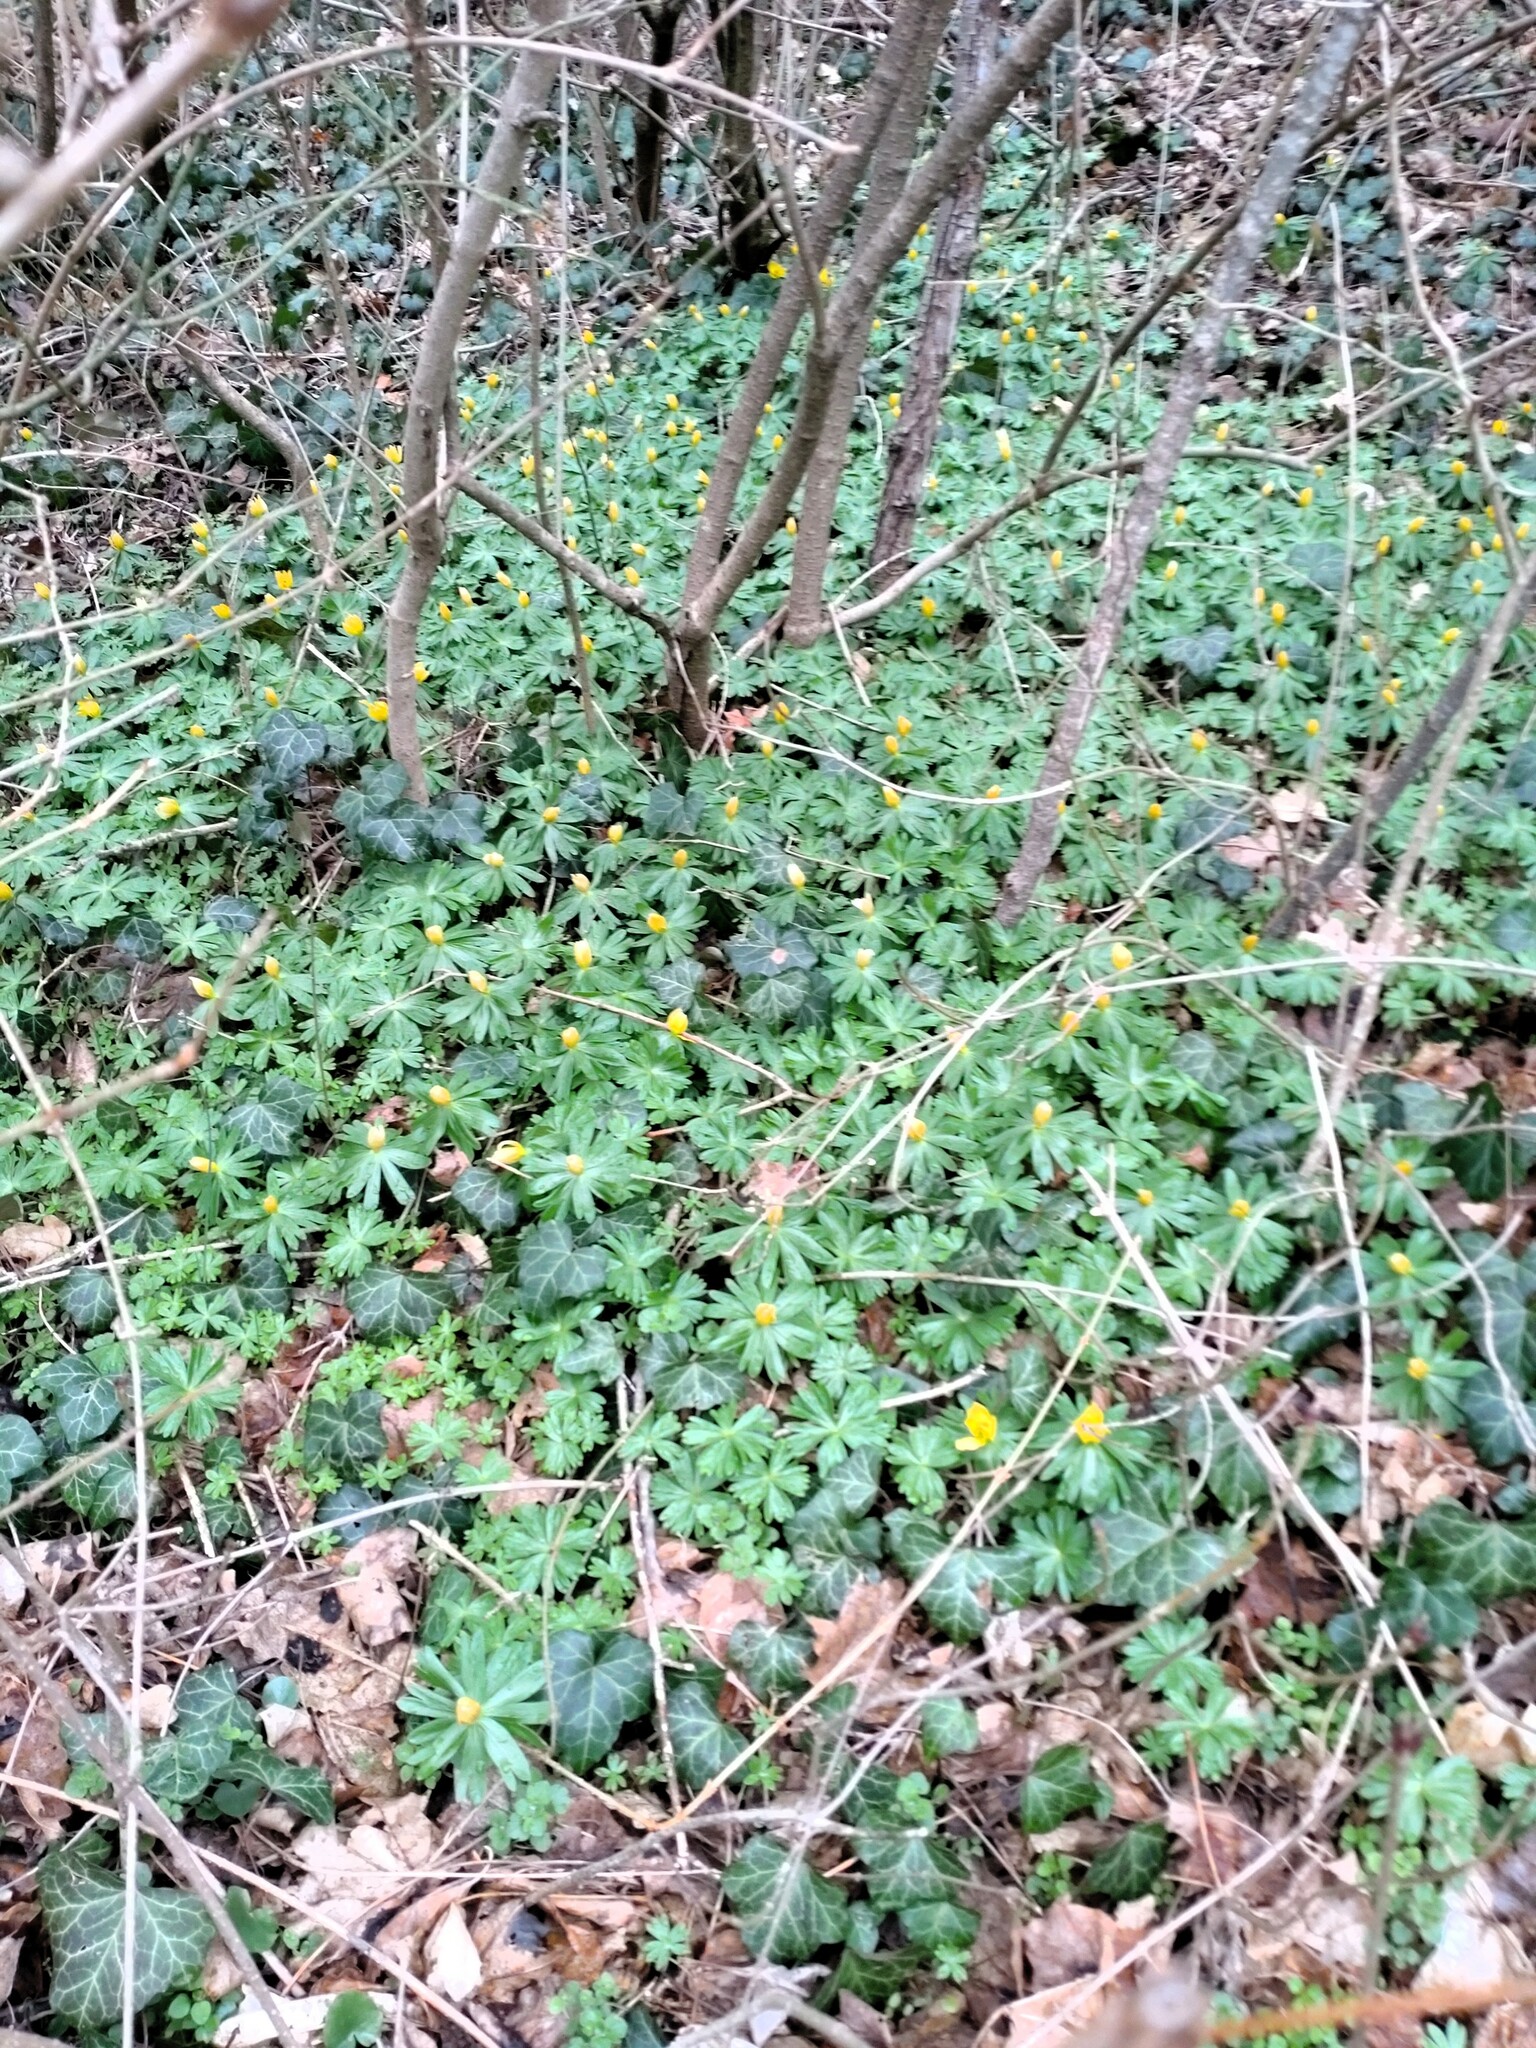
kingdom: Plantae
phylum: Tracheophyta
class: Magnoliopsida
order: Ranunculales
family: Ranunculaceae
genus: Eranthis
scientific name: Eranthis hyemalis
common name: Winter aconite
